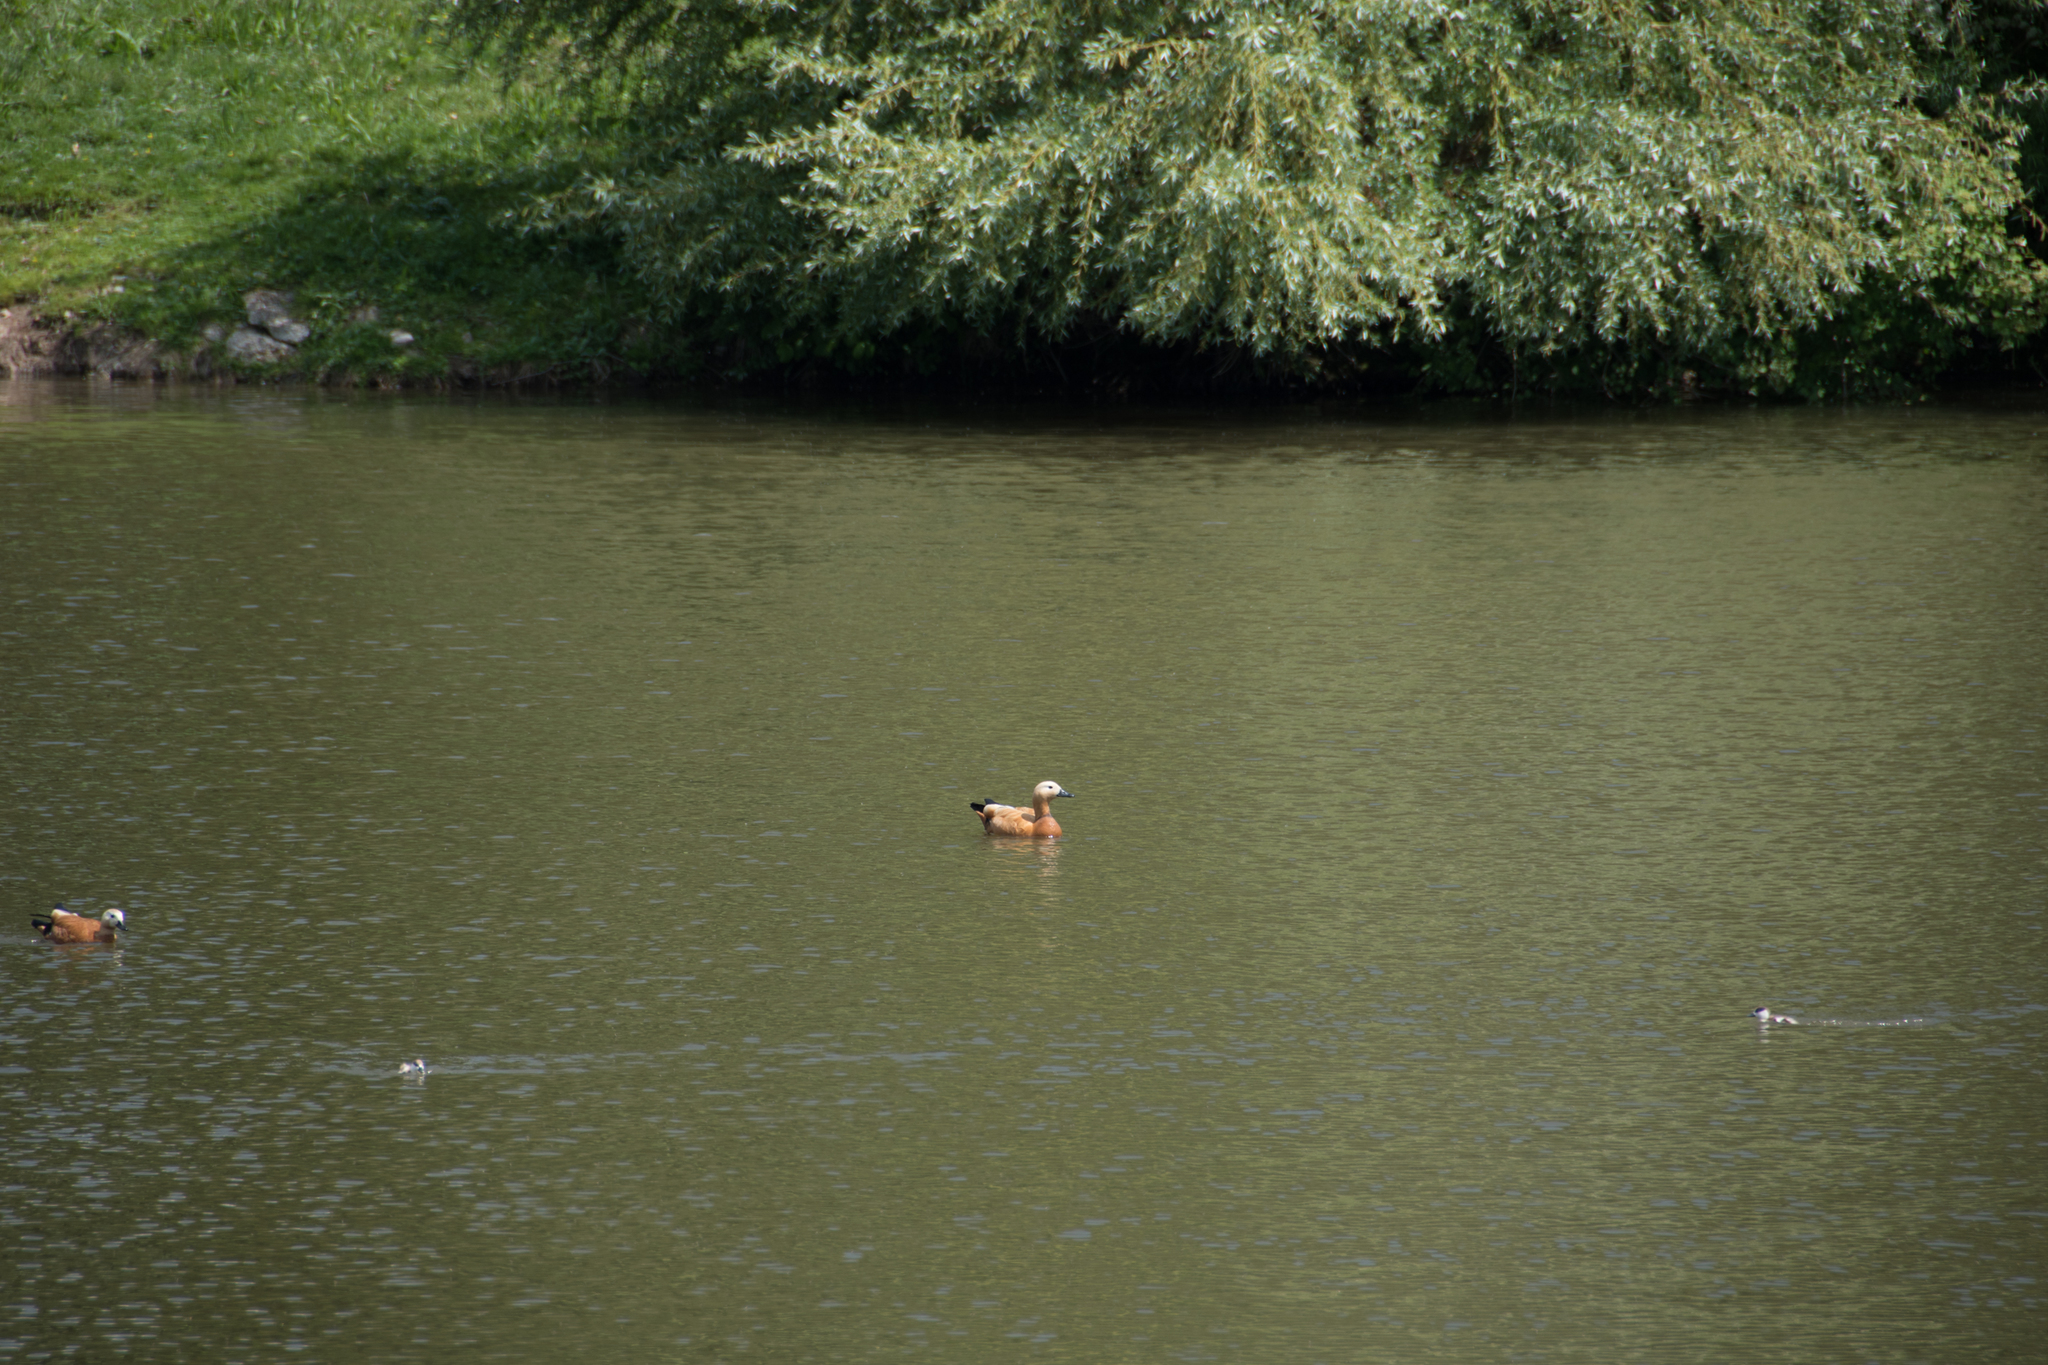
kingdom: Animalia
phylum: Chordata
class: Aves
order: Anseriformes
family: Anatidae
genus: Tadorna
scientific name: Tadorna ferruginea
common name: Ruddy shelduck
